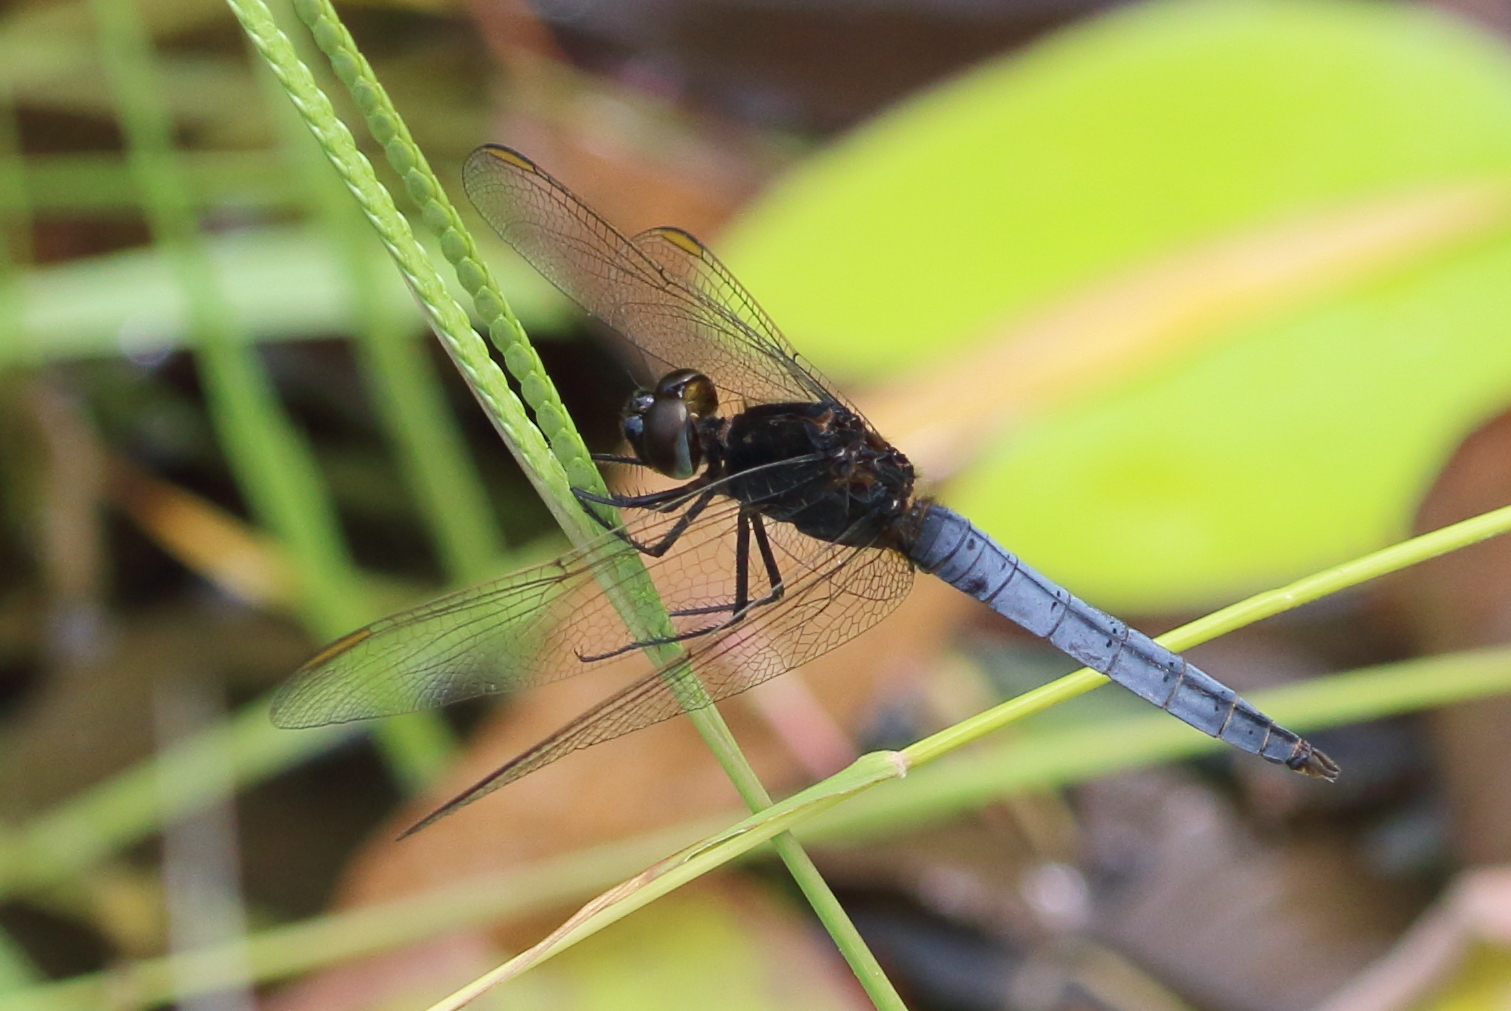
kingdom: Animalia
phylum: Arthropoda
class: Insecta
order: Odonata
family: Libellulidae
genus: Crocothemis
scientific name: Crocothemis nigrifrons
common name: Black-headed skimmer
